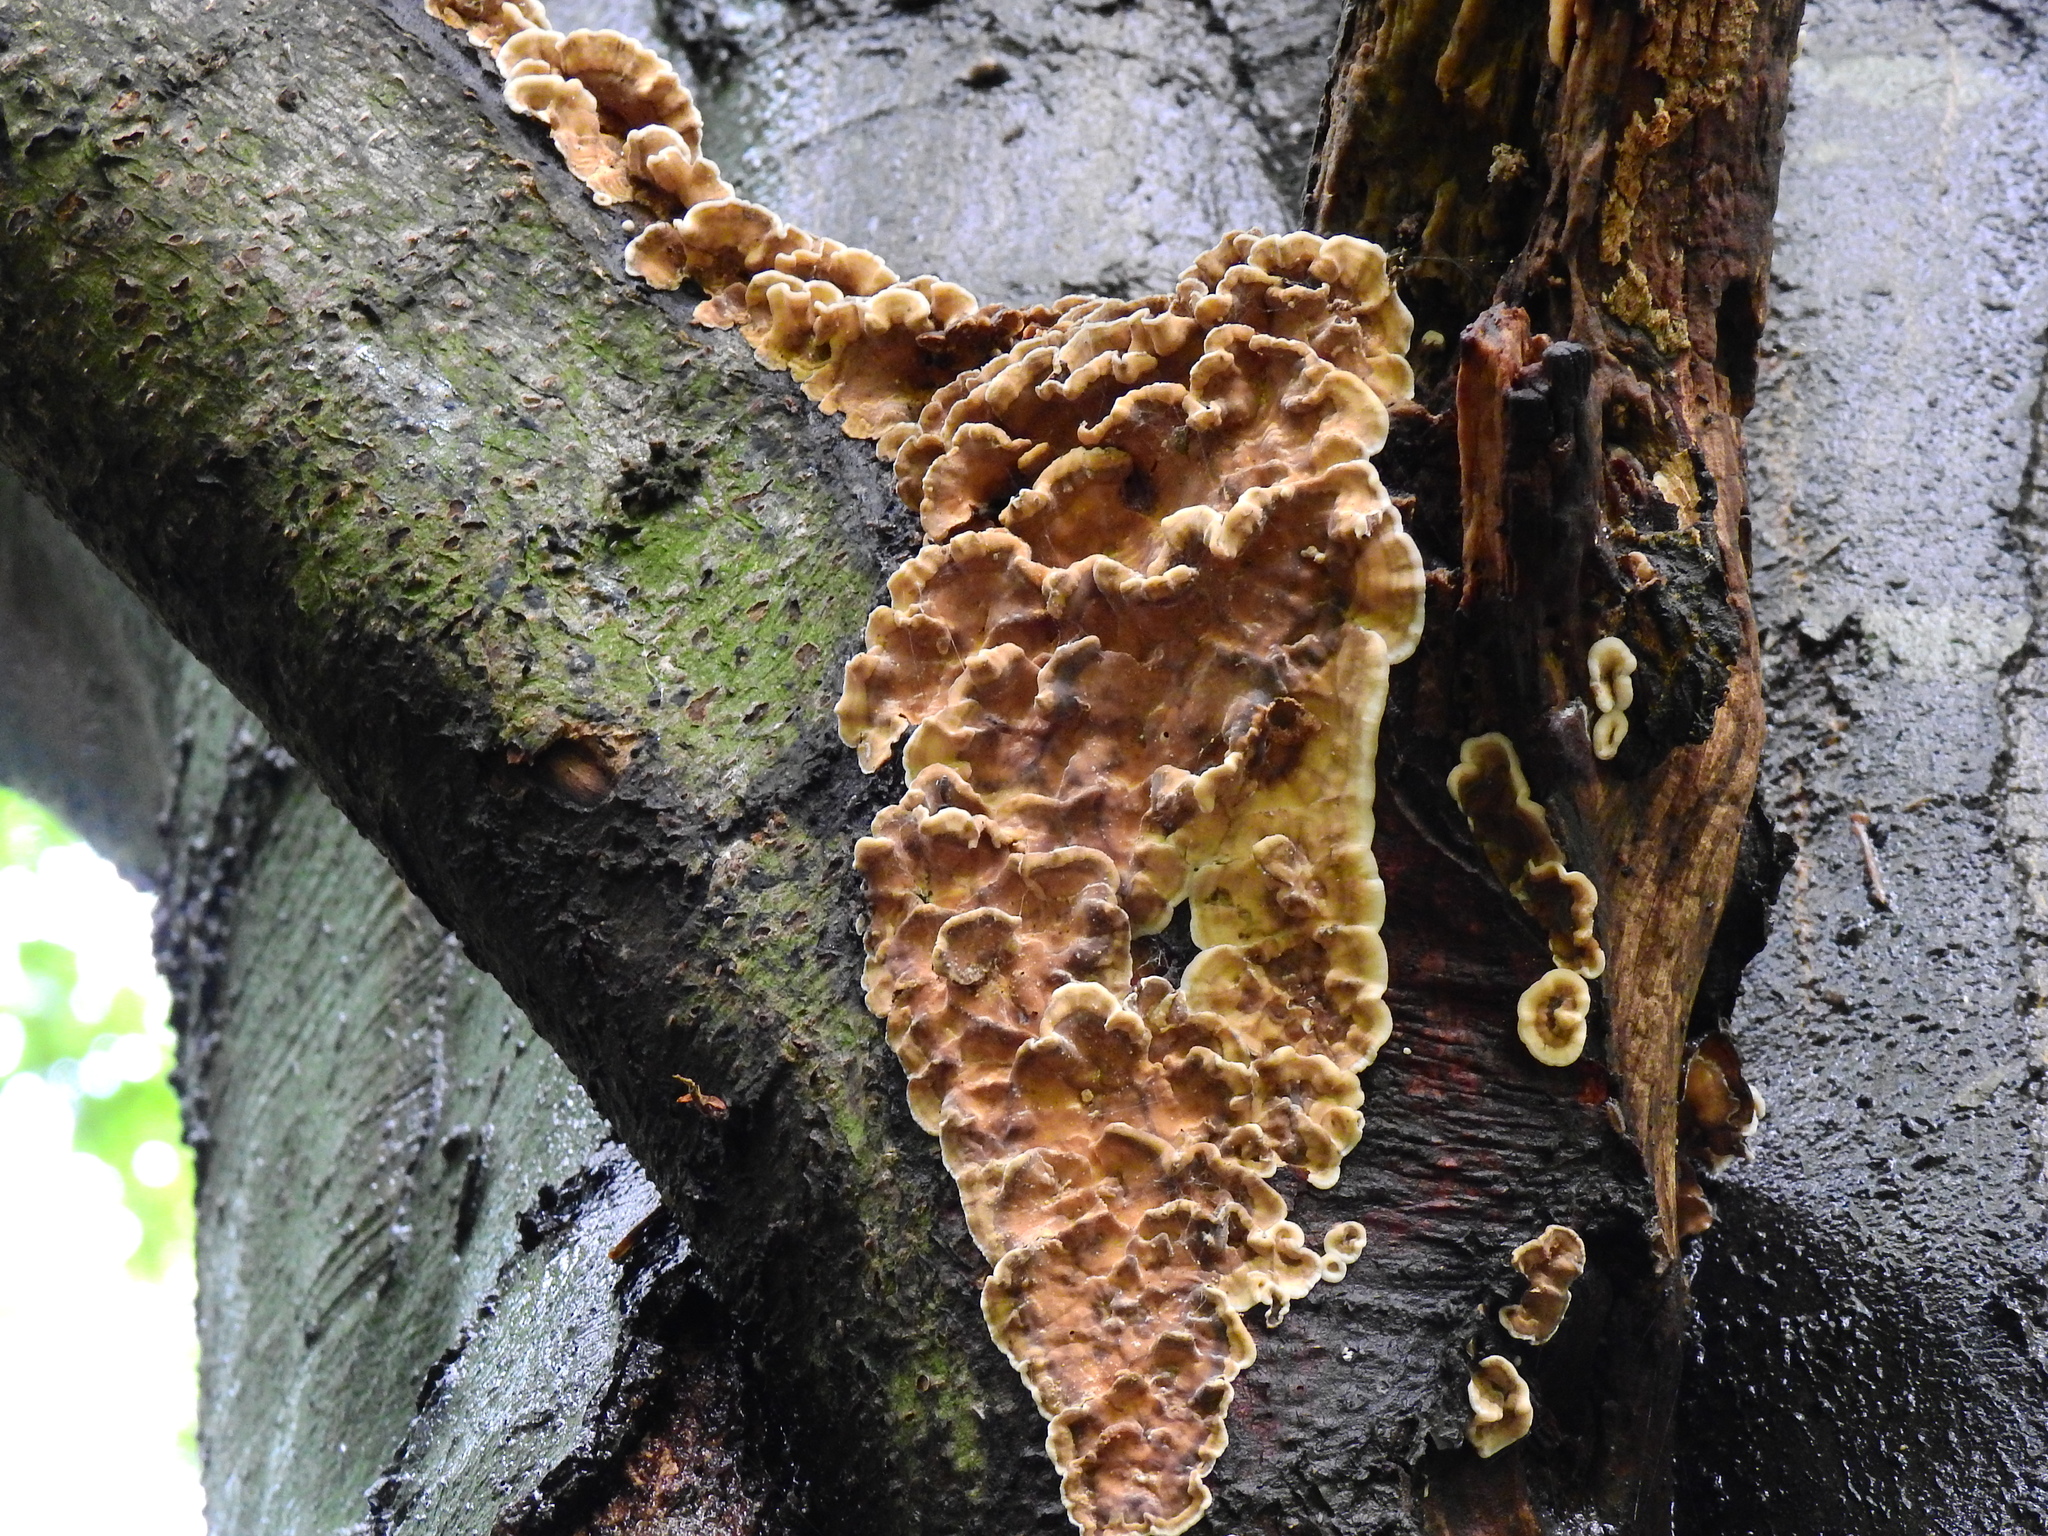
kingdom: Fungi
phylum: Basidiomycota
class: Agaricomycetes
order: Russulales
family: Stereaceae
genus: Stereum
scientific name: Stereum hirsutum
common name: Hairy curtain crust
